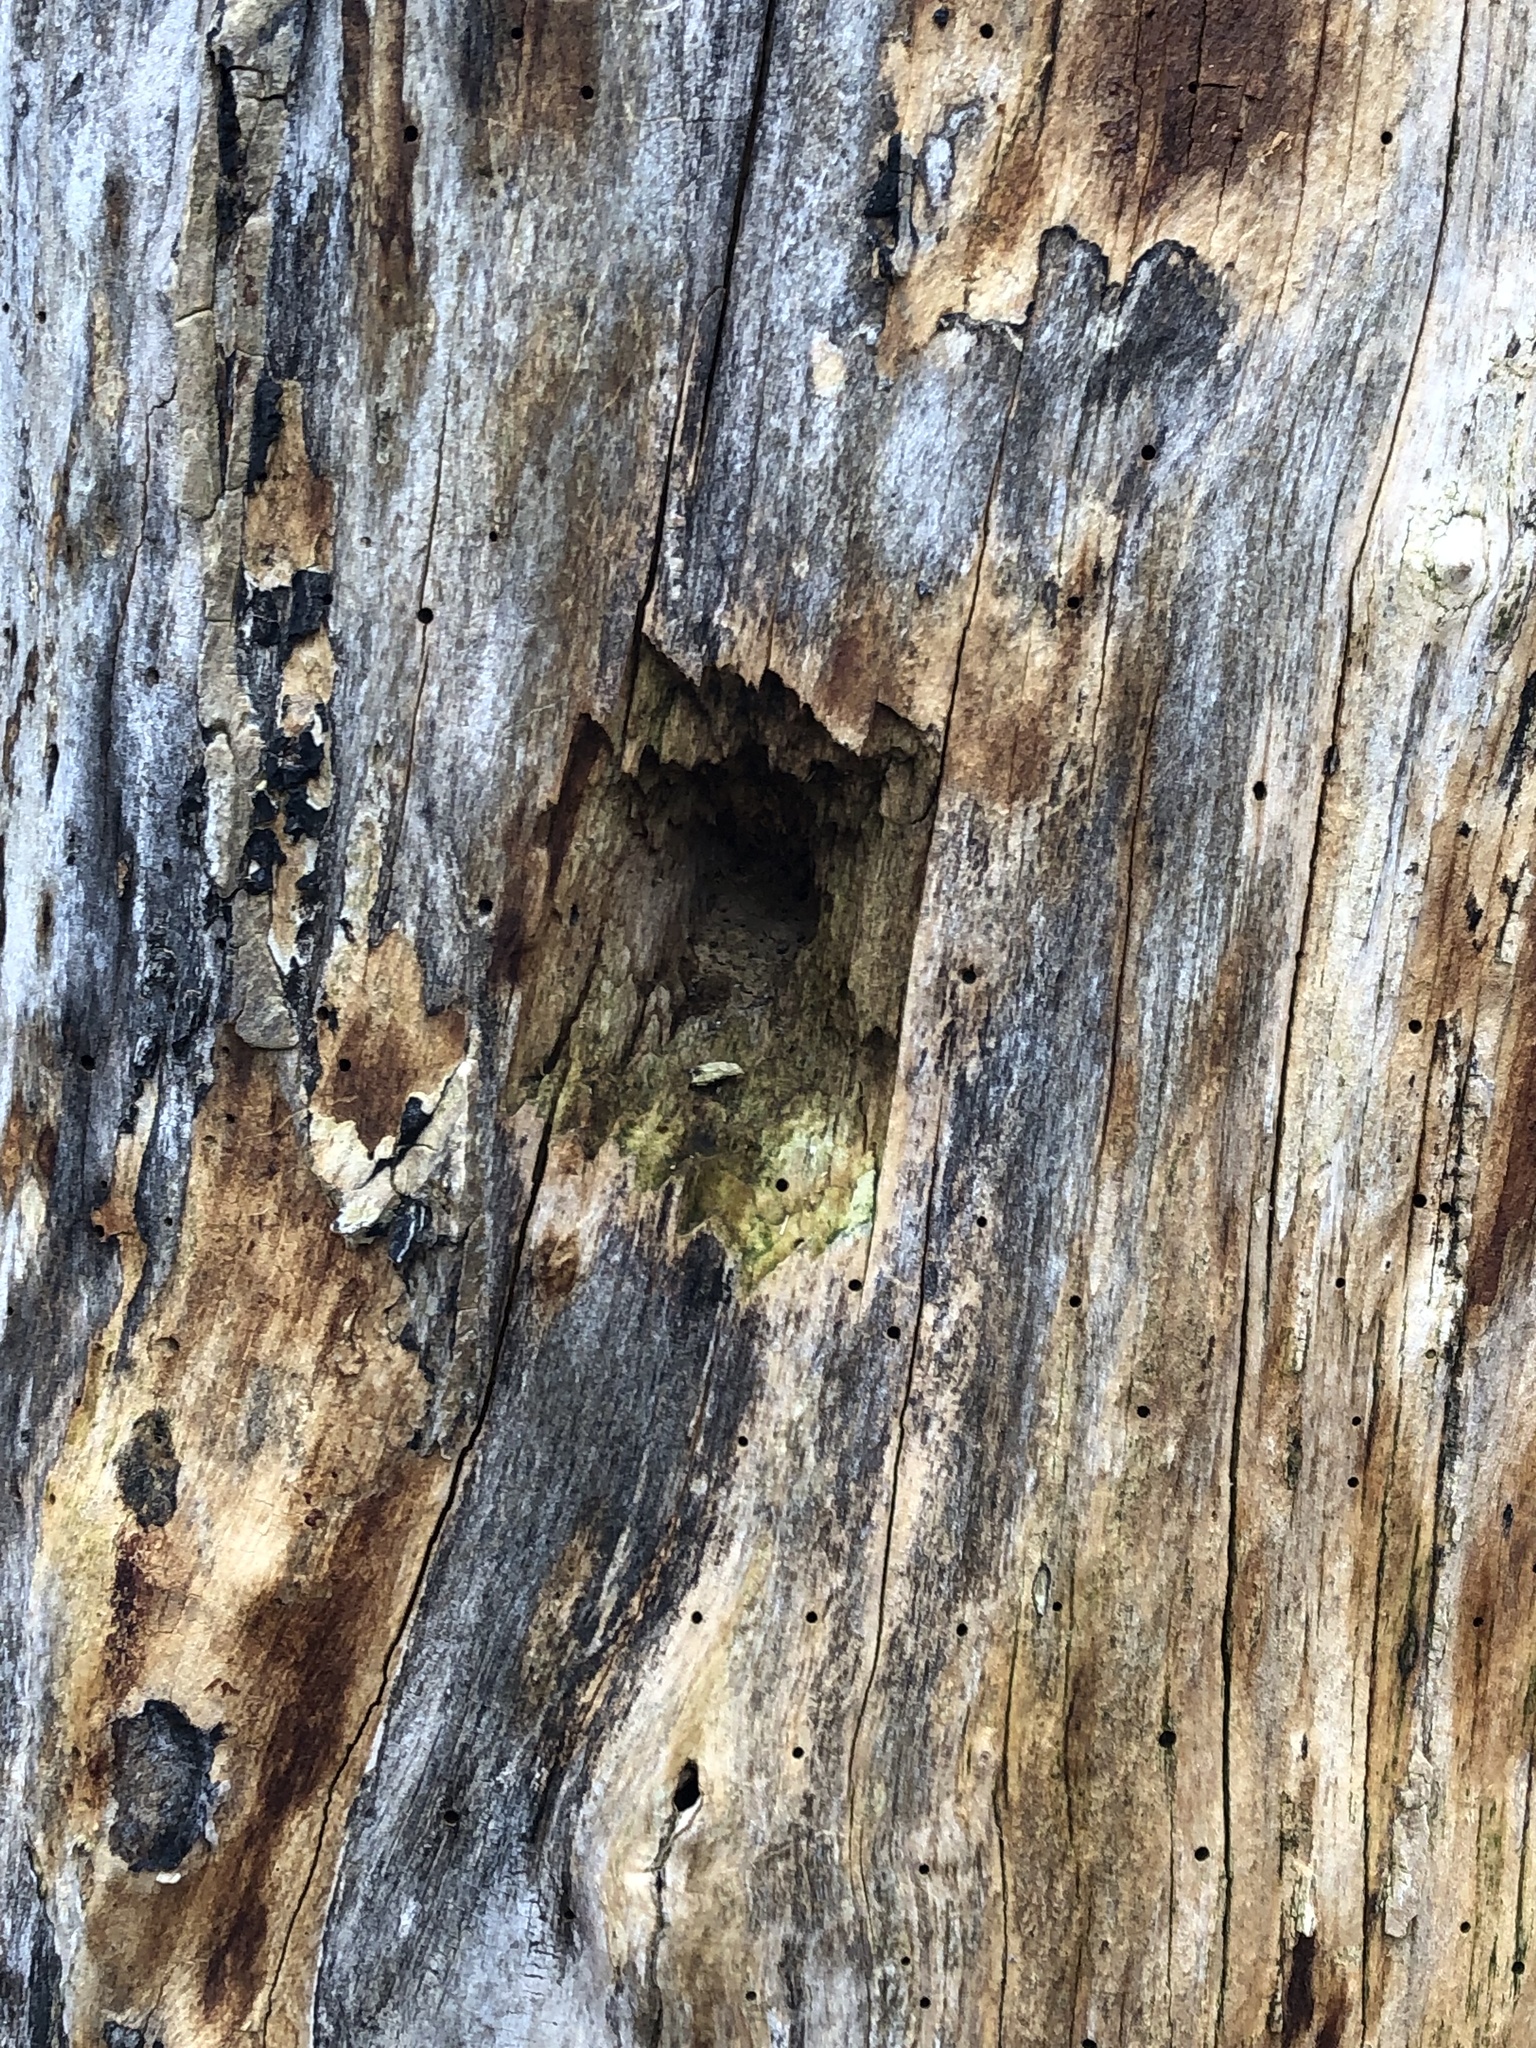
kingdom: Animalia
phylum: Chordata
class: Aves
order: Piciformes
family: Picidae
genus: Dryocopus
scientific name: Dryocopus pileatus
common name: Pileated woodpecker
